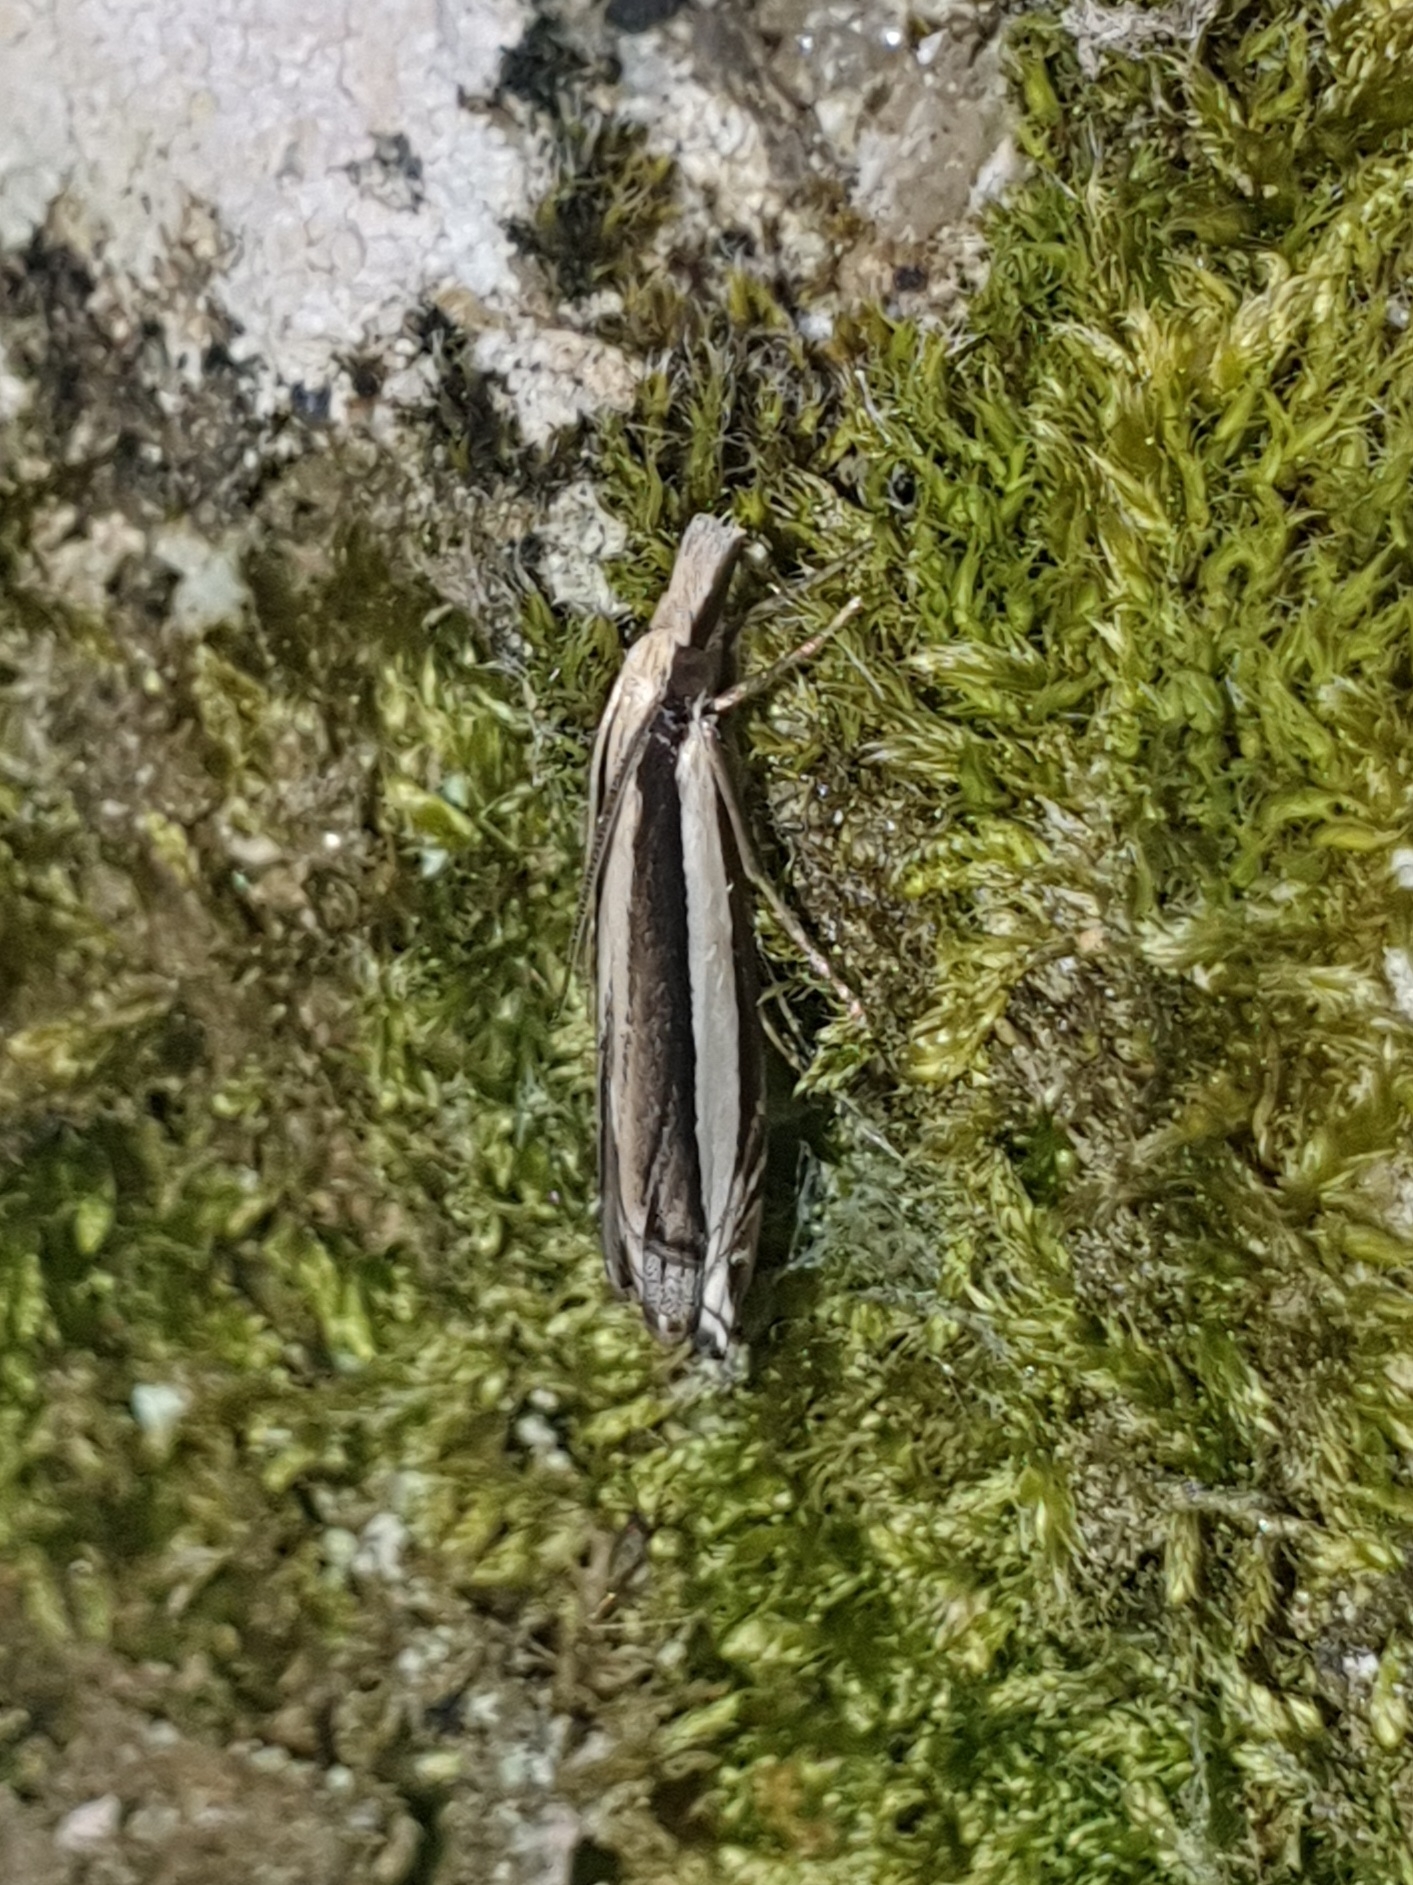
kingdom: Animalia
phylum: Arthropoda
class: Insecta
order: Lepidoptera
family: Crambidae
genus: Angustalius
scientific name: Angustalius malacellus
